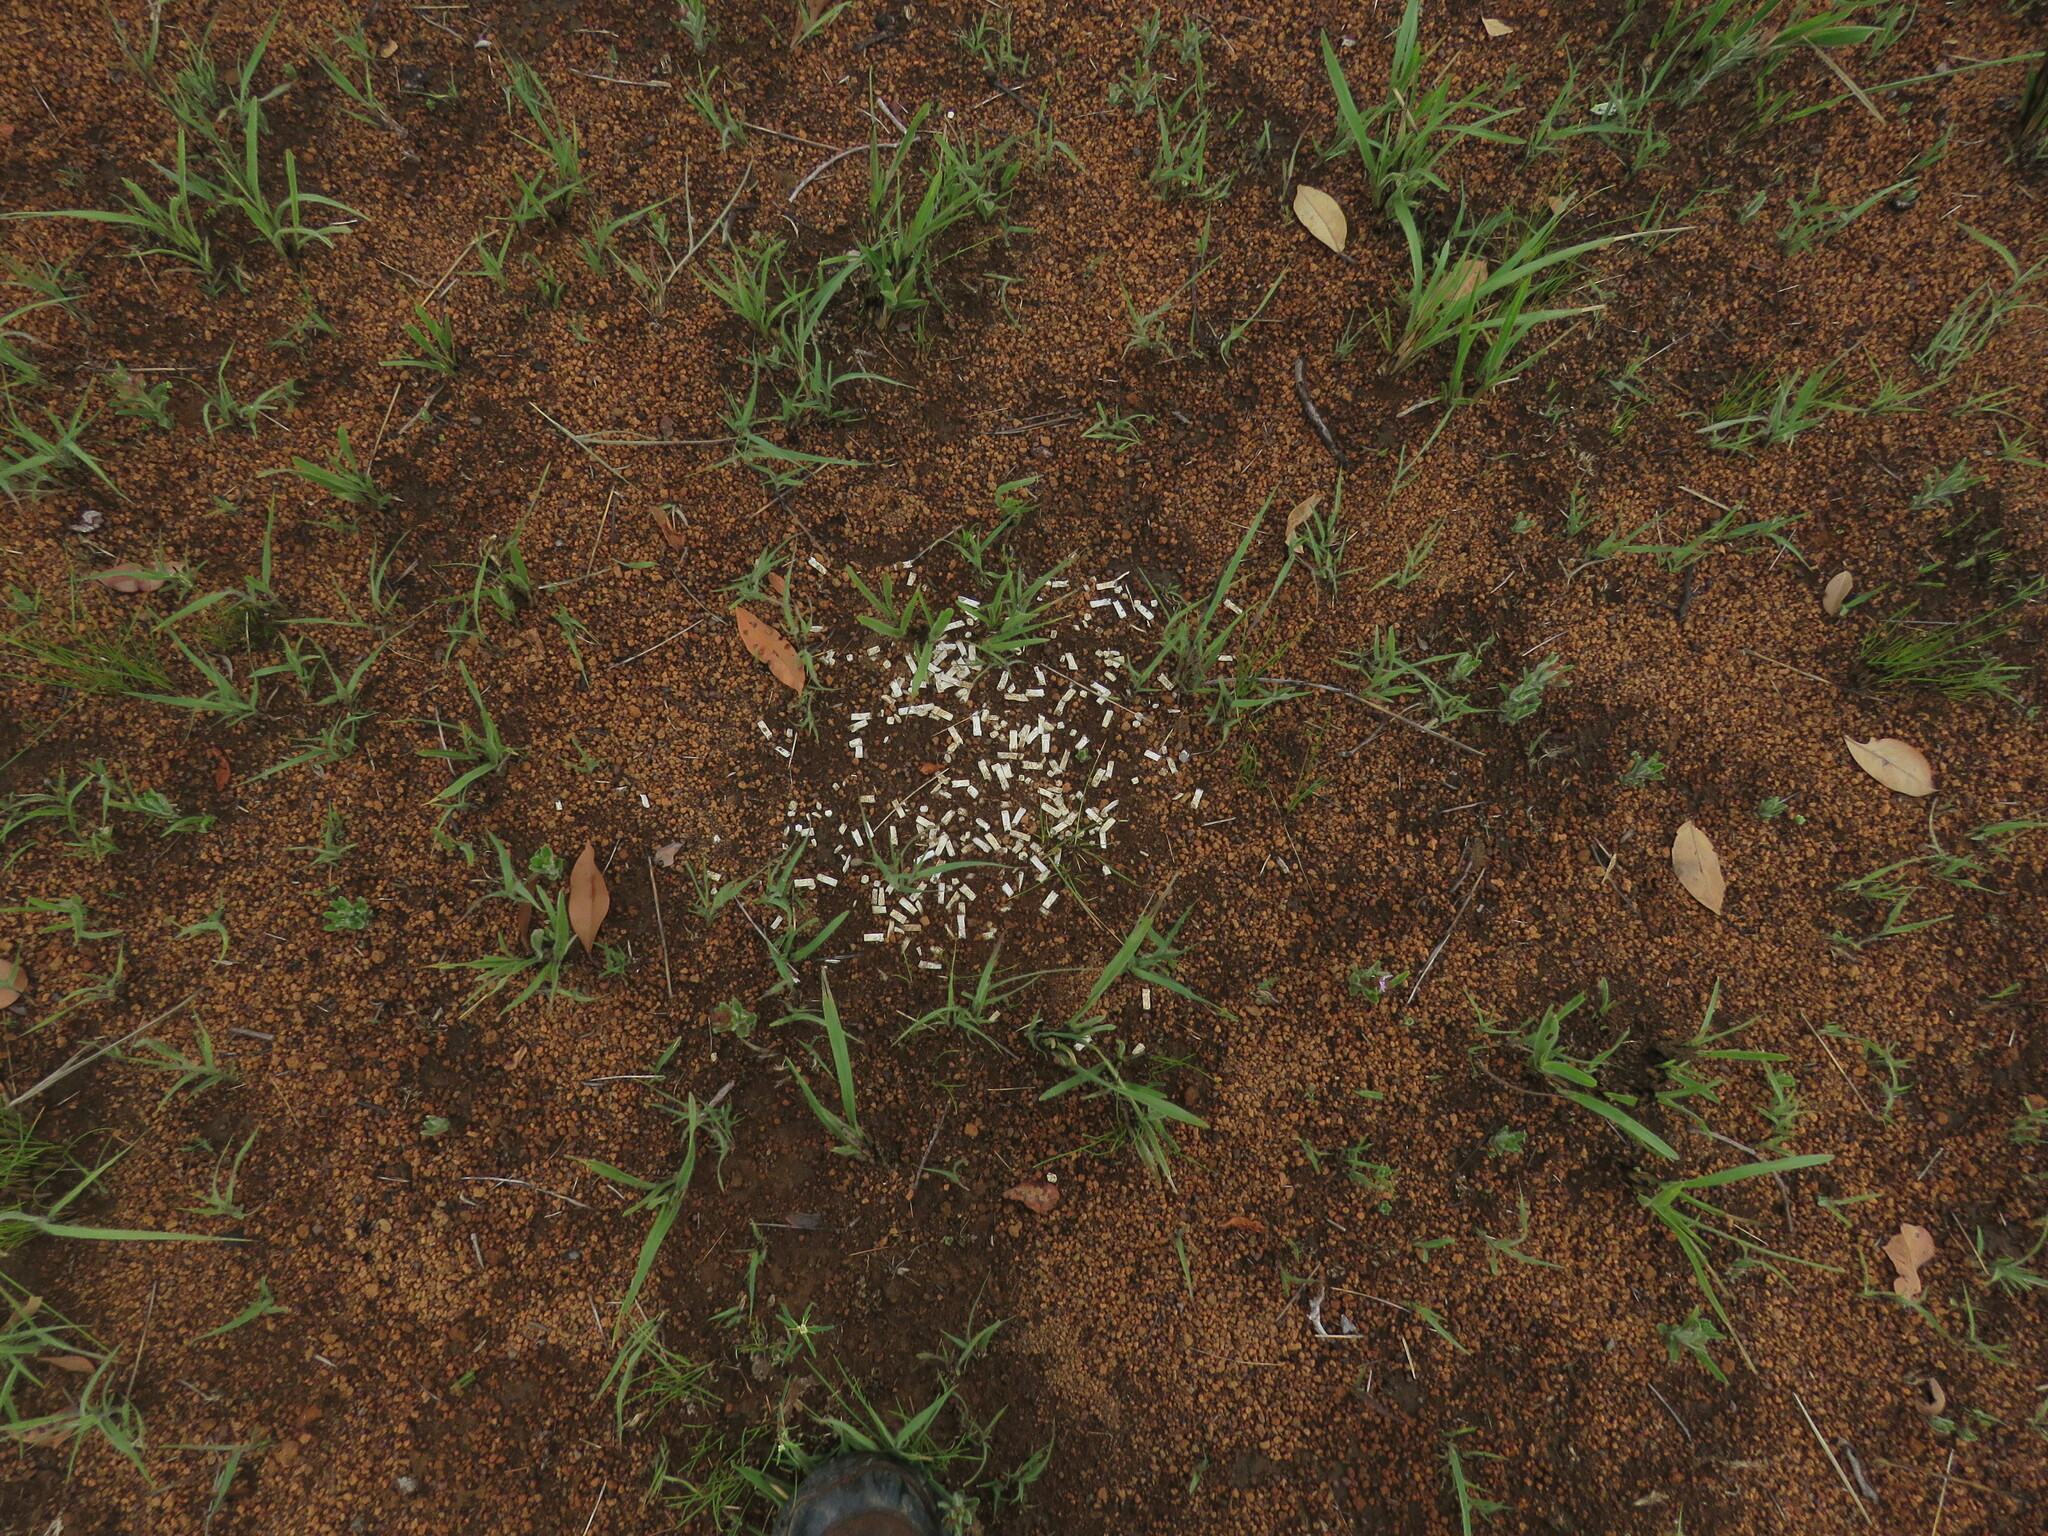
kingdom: Animalia
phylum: Chordata
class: Mammalia
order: Cingulata
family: Dasypodidae
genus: Euphractus
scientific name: Euphractus sexcinctus
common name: Six-banded armadillo
